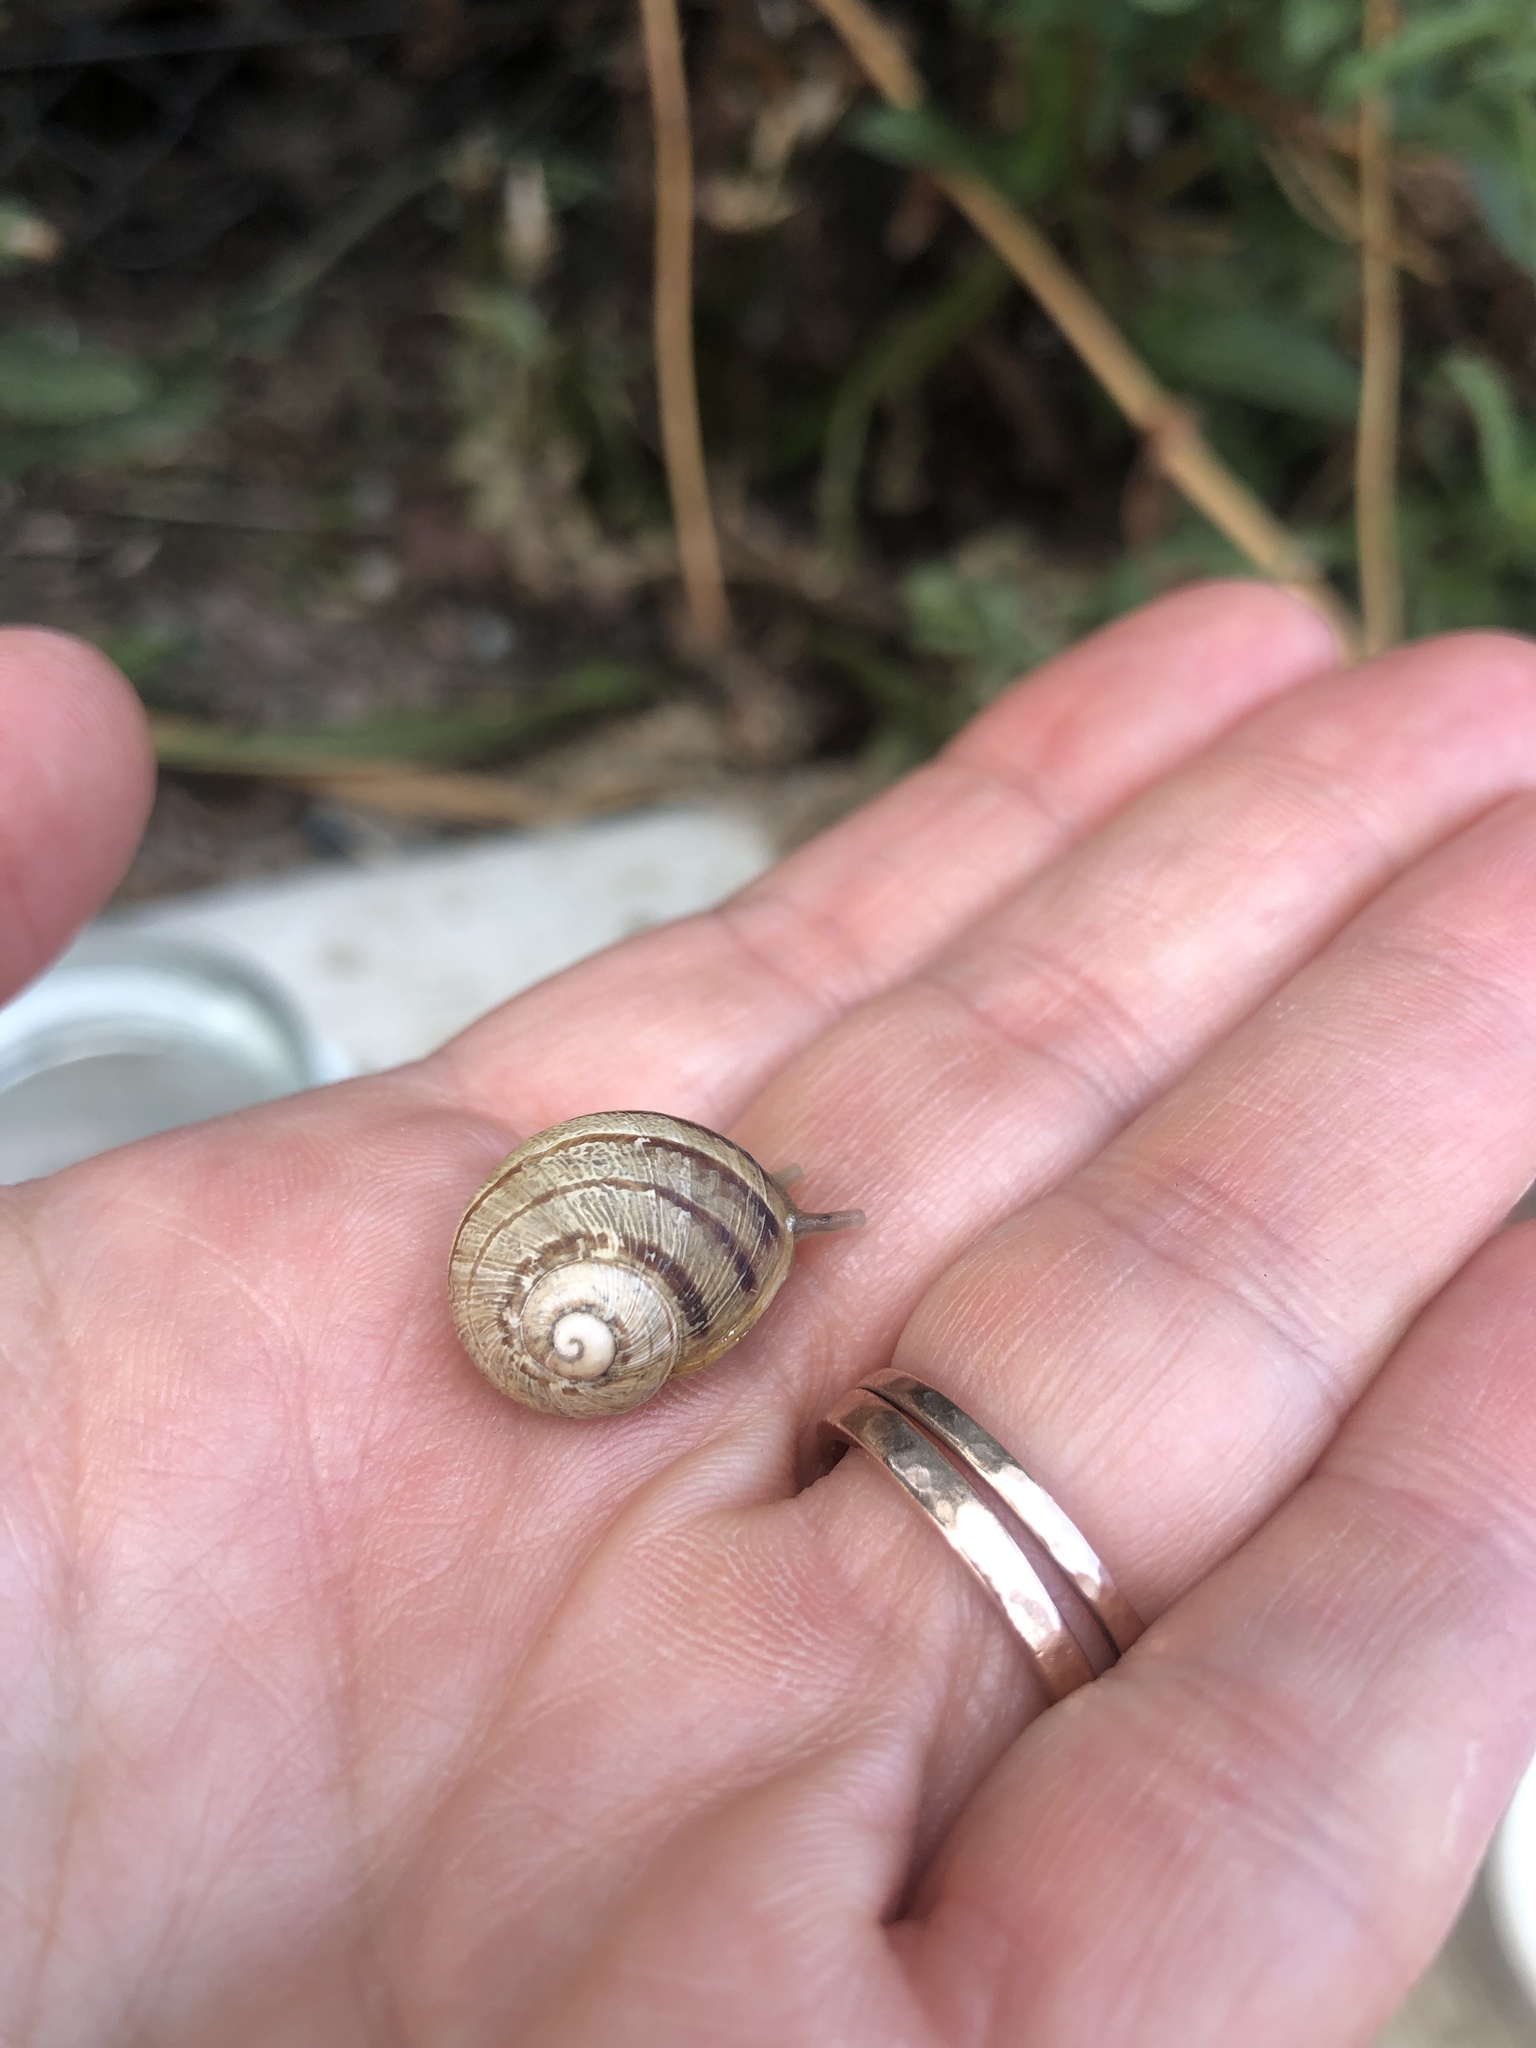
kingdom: Animalia
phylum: Mollusca
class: Gastropoda
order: Stylommatophora
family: Helicidae
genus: Cornu
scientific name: Cornu aspersum
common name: Brown garden snail
